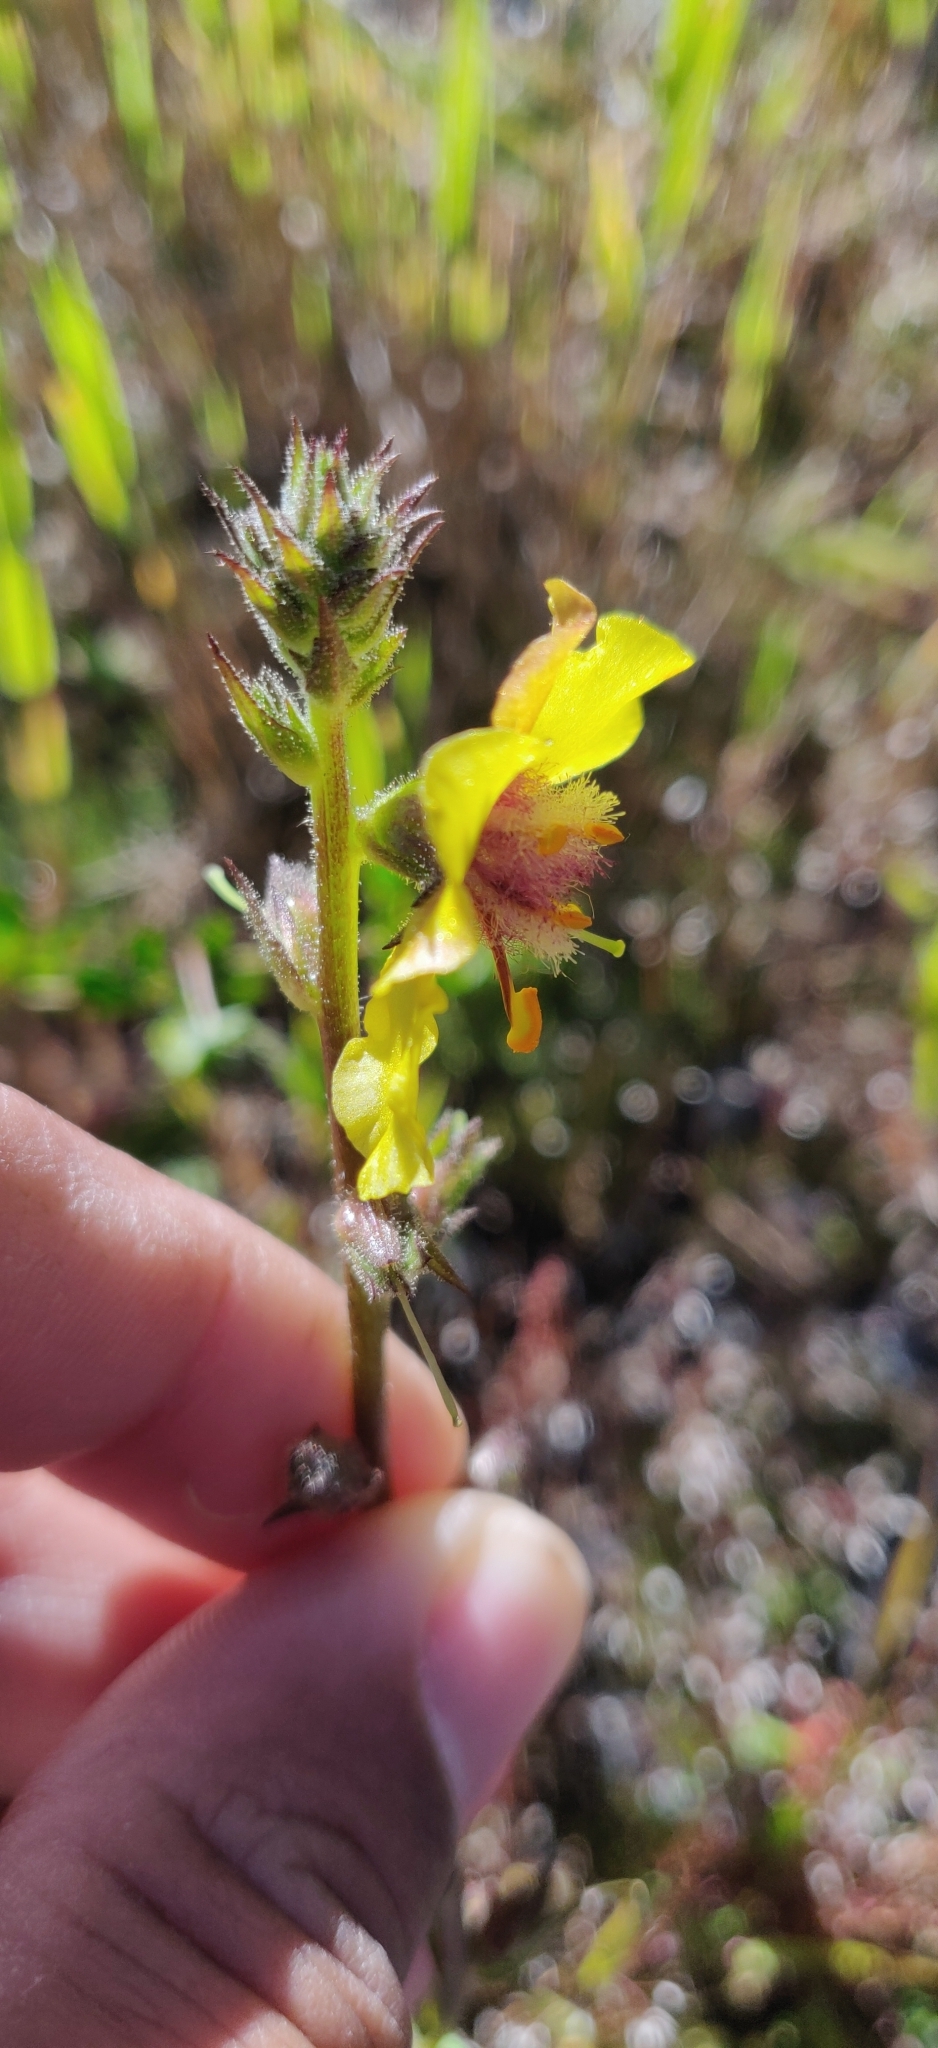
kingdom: Plantae
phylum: Tracheophyta
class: Magnoliopsida
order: Lamiales
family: Scrophulariaceae
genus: Verbascum
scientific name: Verbascum virgatum
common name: Twiggy mullein
